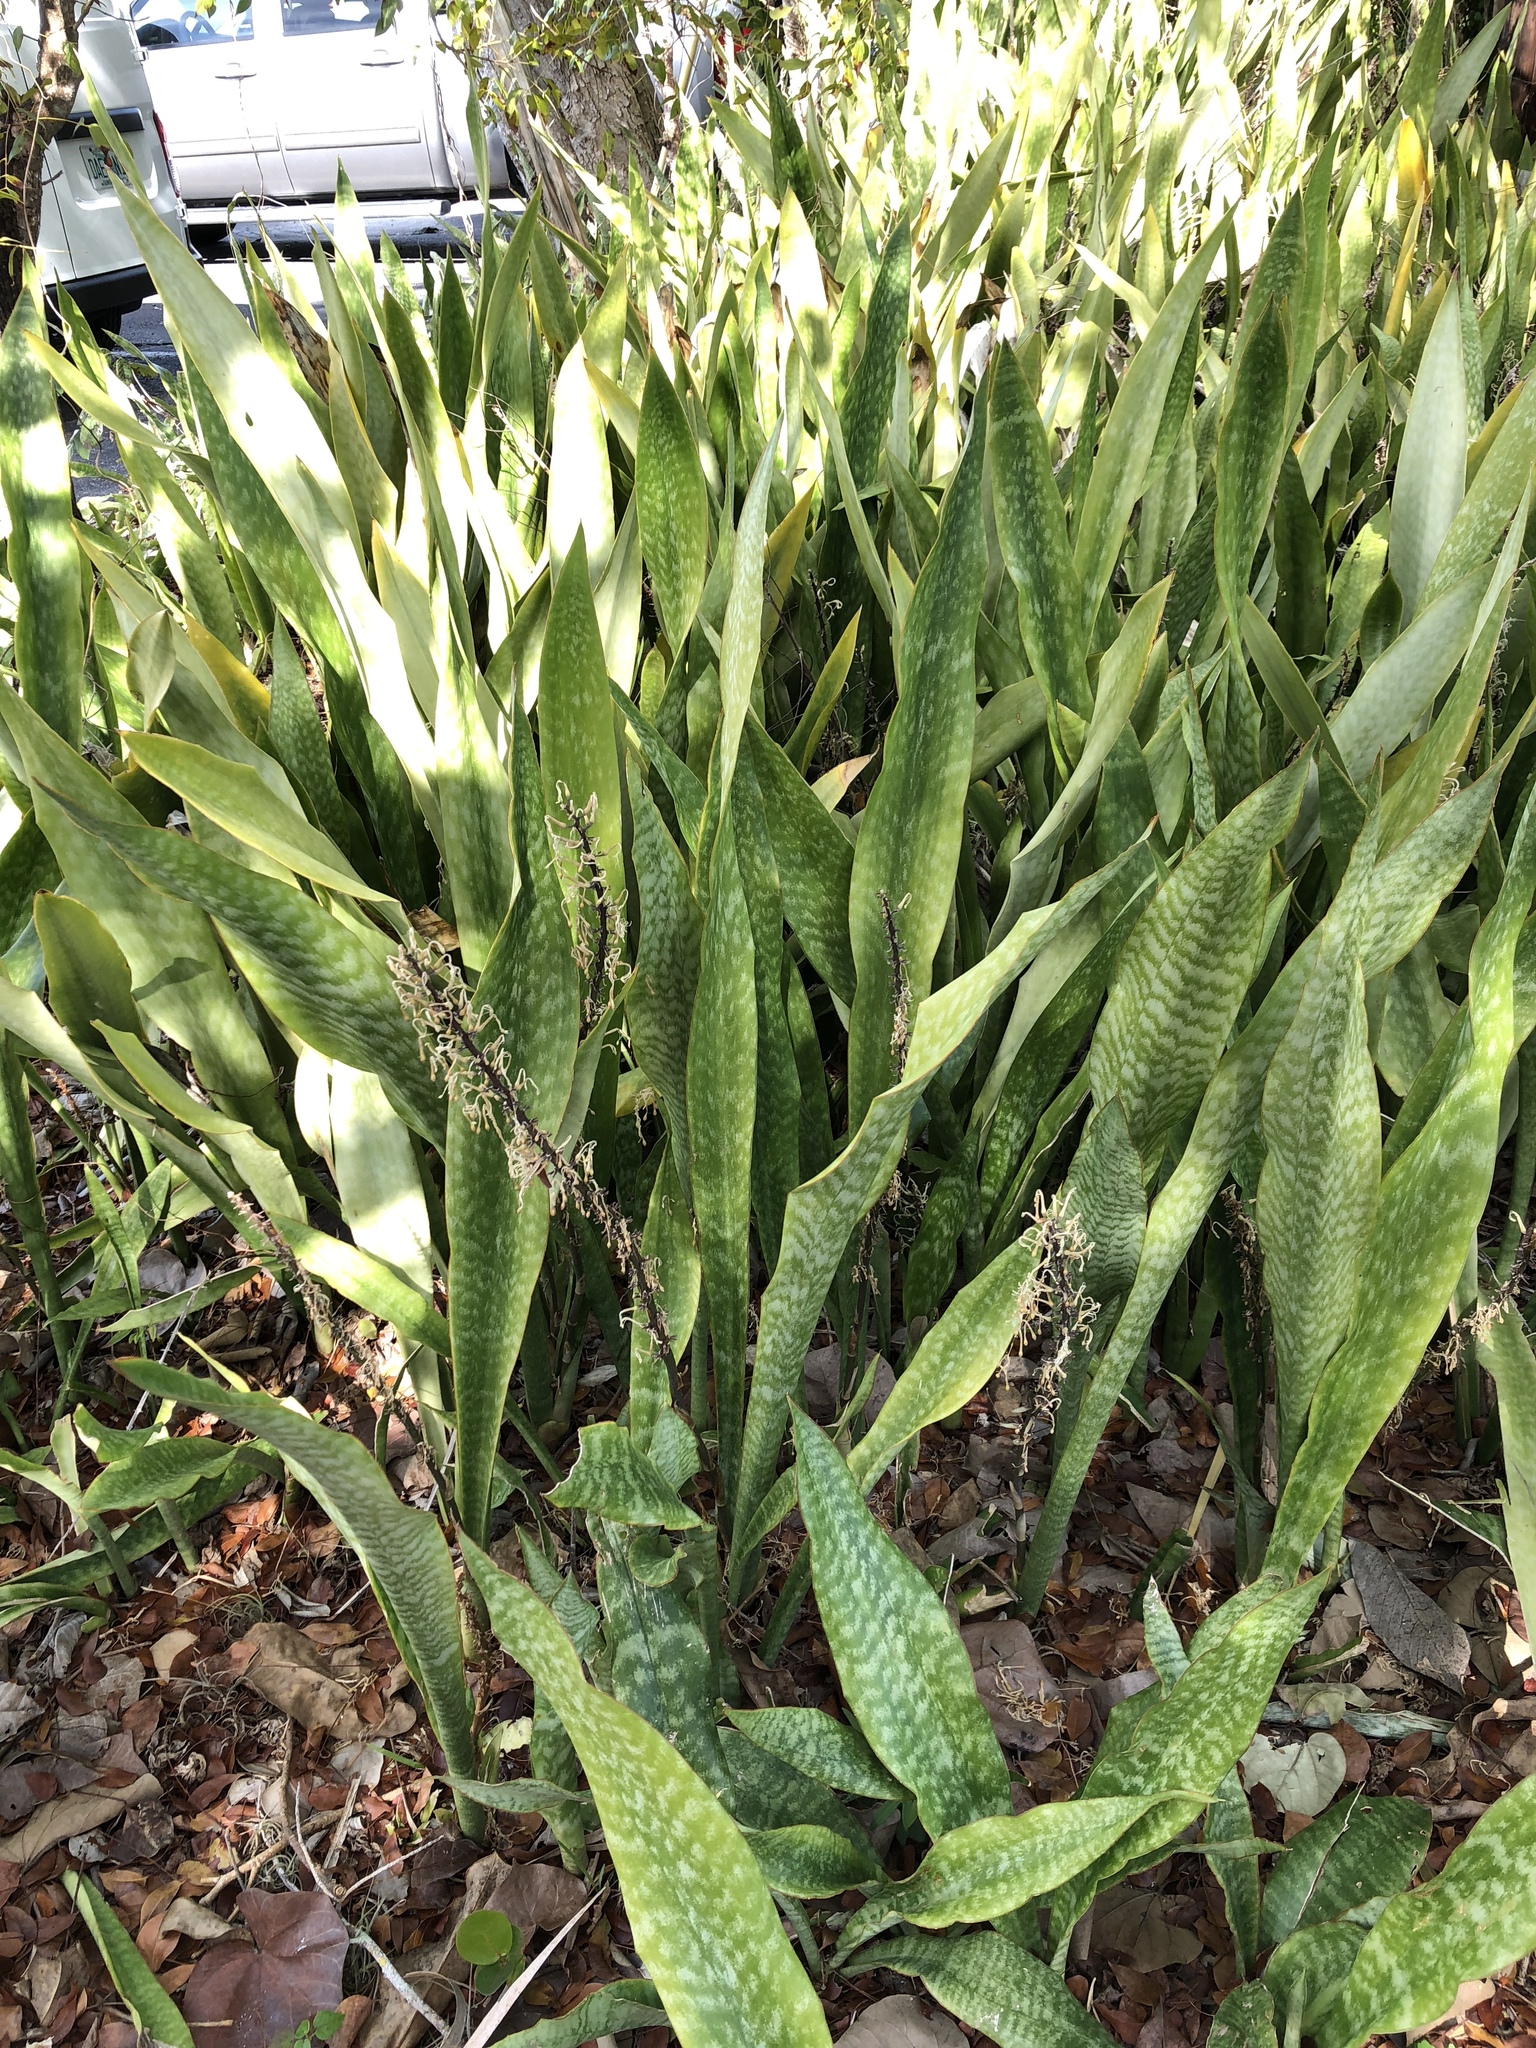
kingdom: Plantae
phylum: Tracheophyta
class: Liliopsida
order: Asparagales
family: Asparagaceae
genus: Dracaena
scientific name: Dracaena hyacinthoides
